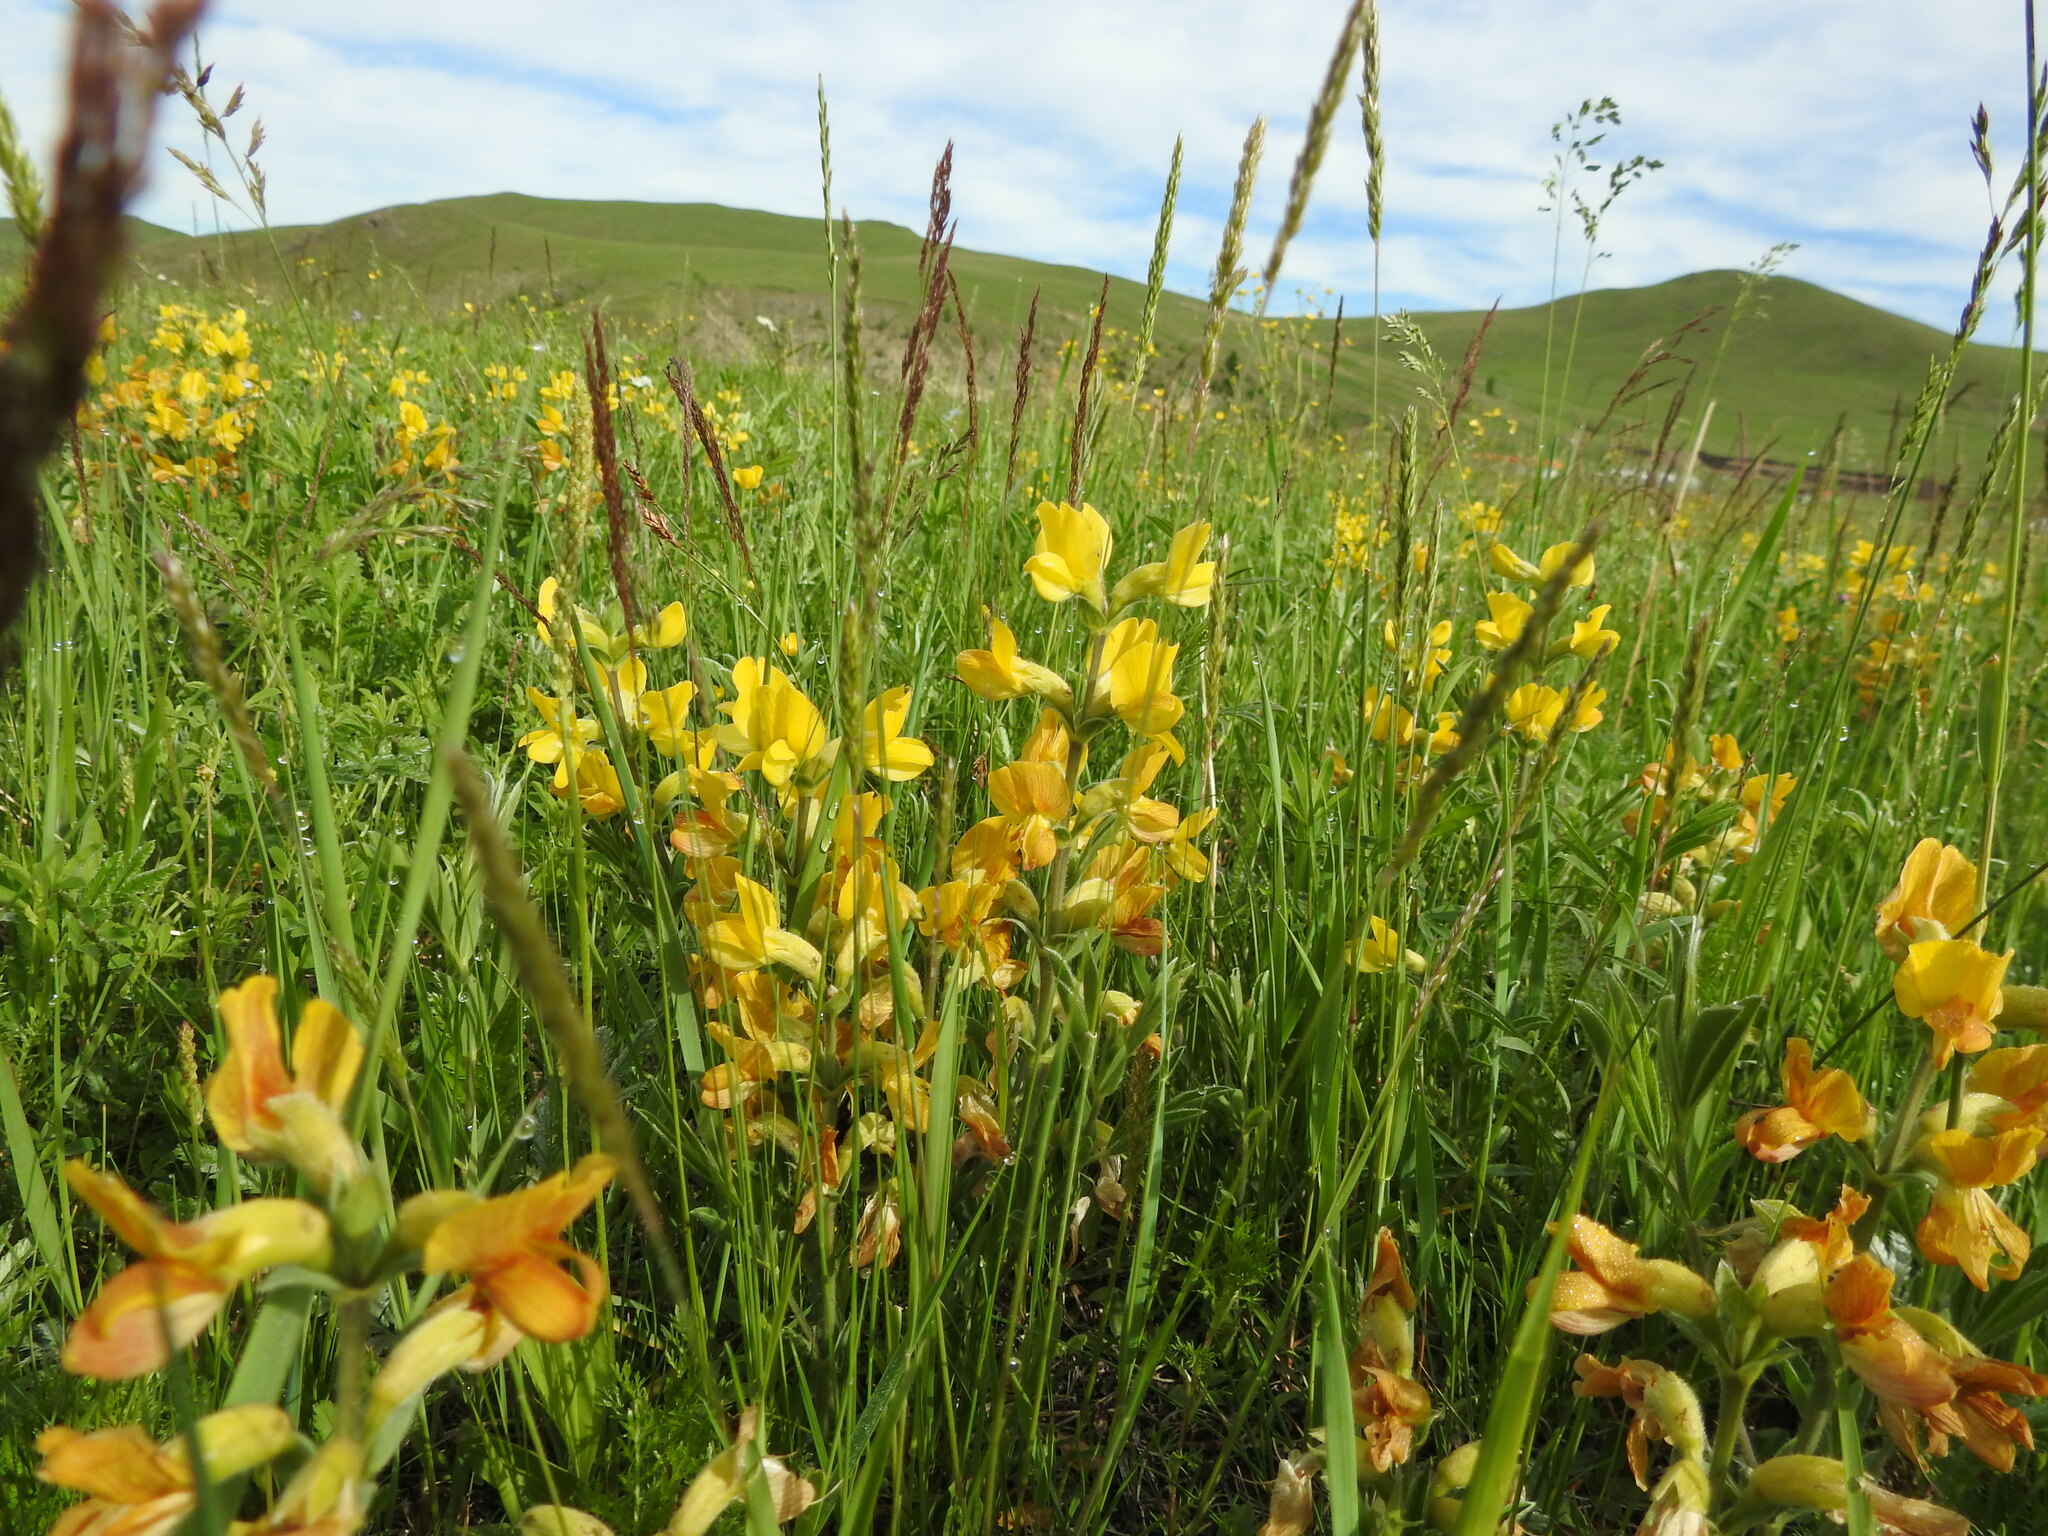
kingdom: Plantae
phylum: Tracheophyta
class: Magnoliopsida
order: Fabales
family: Fabaceae
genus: Thermopsis
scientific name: Thermopsis lanceolata
